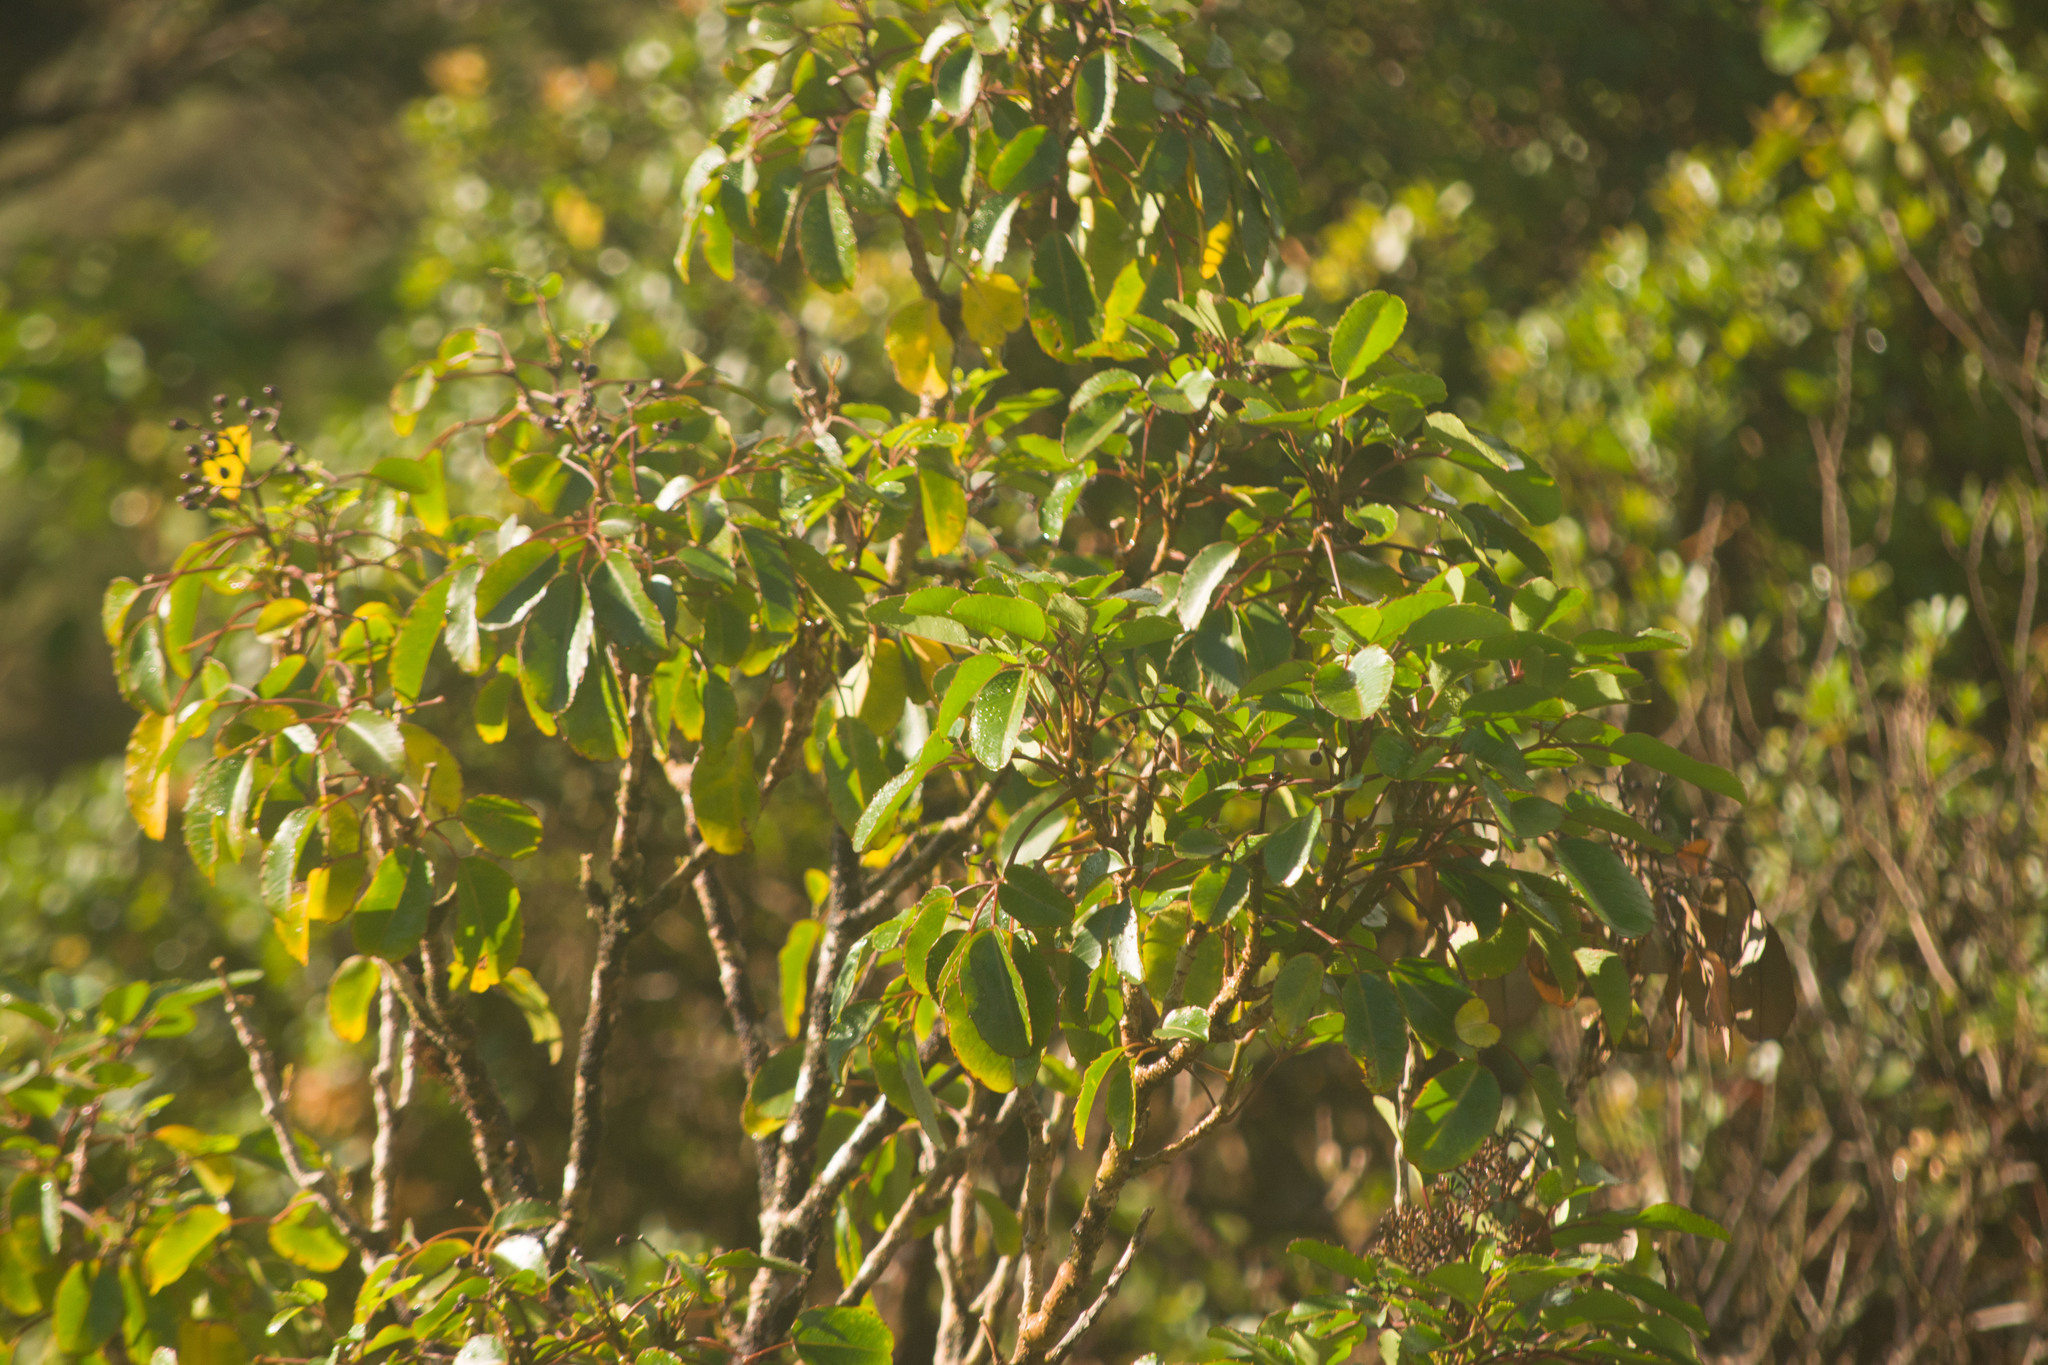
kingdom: Plantae
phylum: Tracheophyta
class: Magnoliopsida
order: Apiales
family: Araliaceae
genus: Cheirodendron
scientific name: Cheirodendron trigynum
